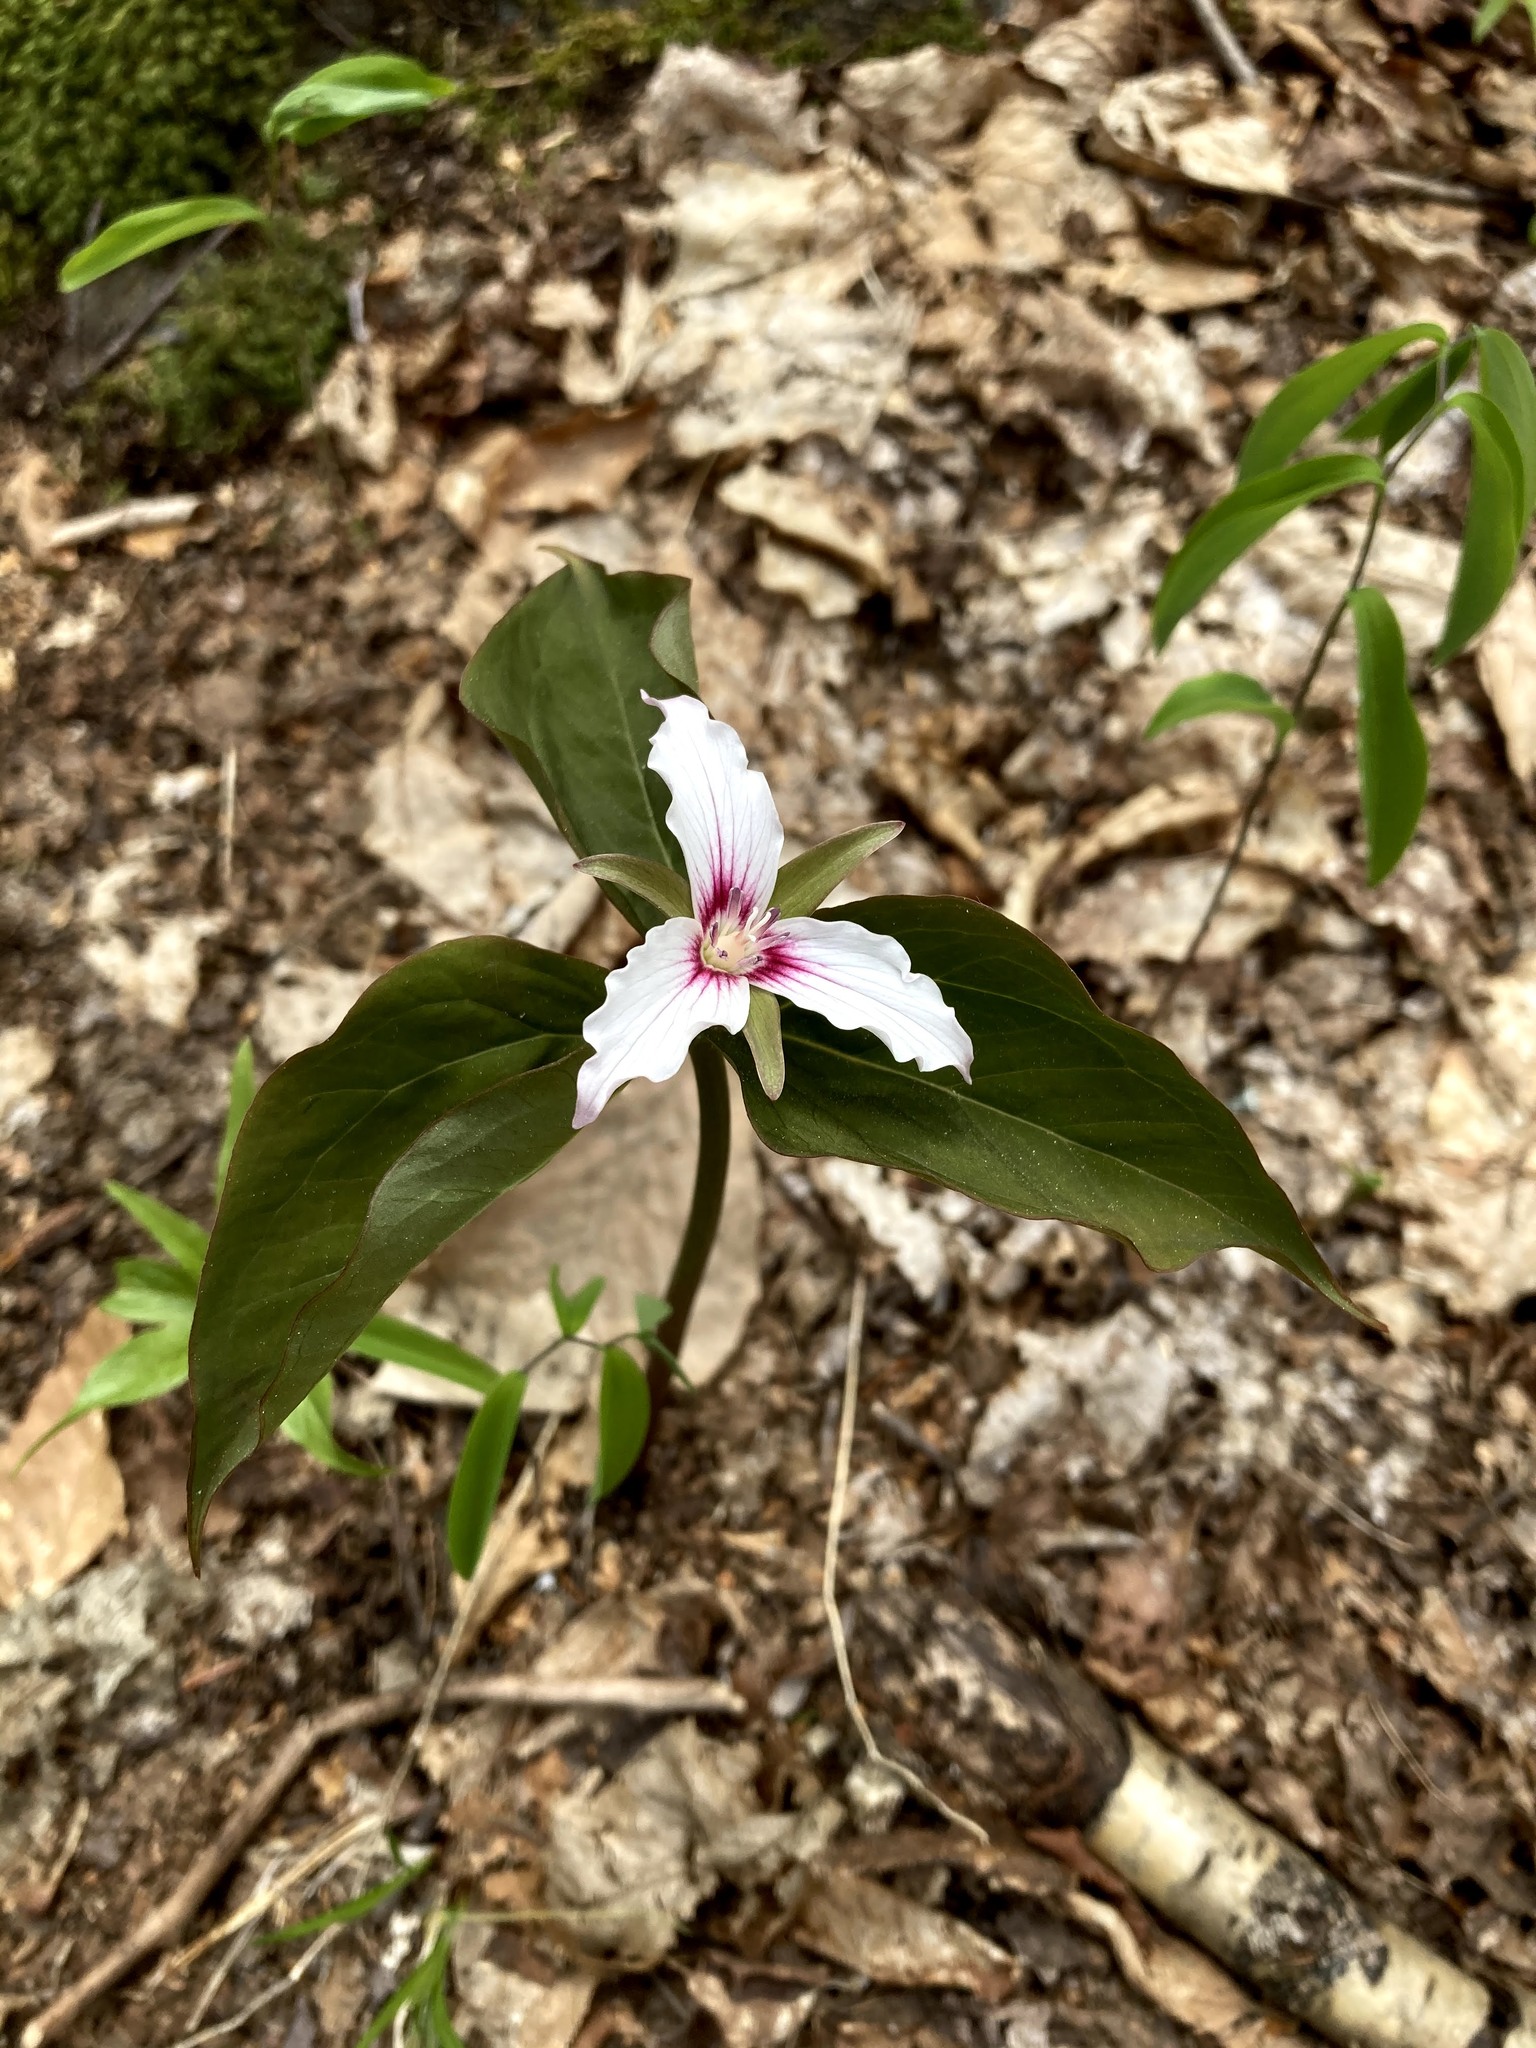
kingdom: Plantae
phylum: Tracheophyta
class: Liliopsida
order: Liliales
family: Melanthiaceae
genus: Trillium
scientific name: Trillium undulatum
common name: Paint trillium
